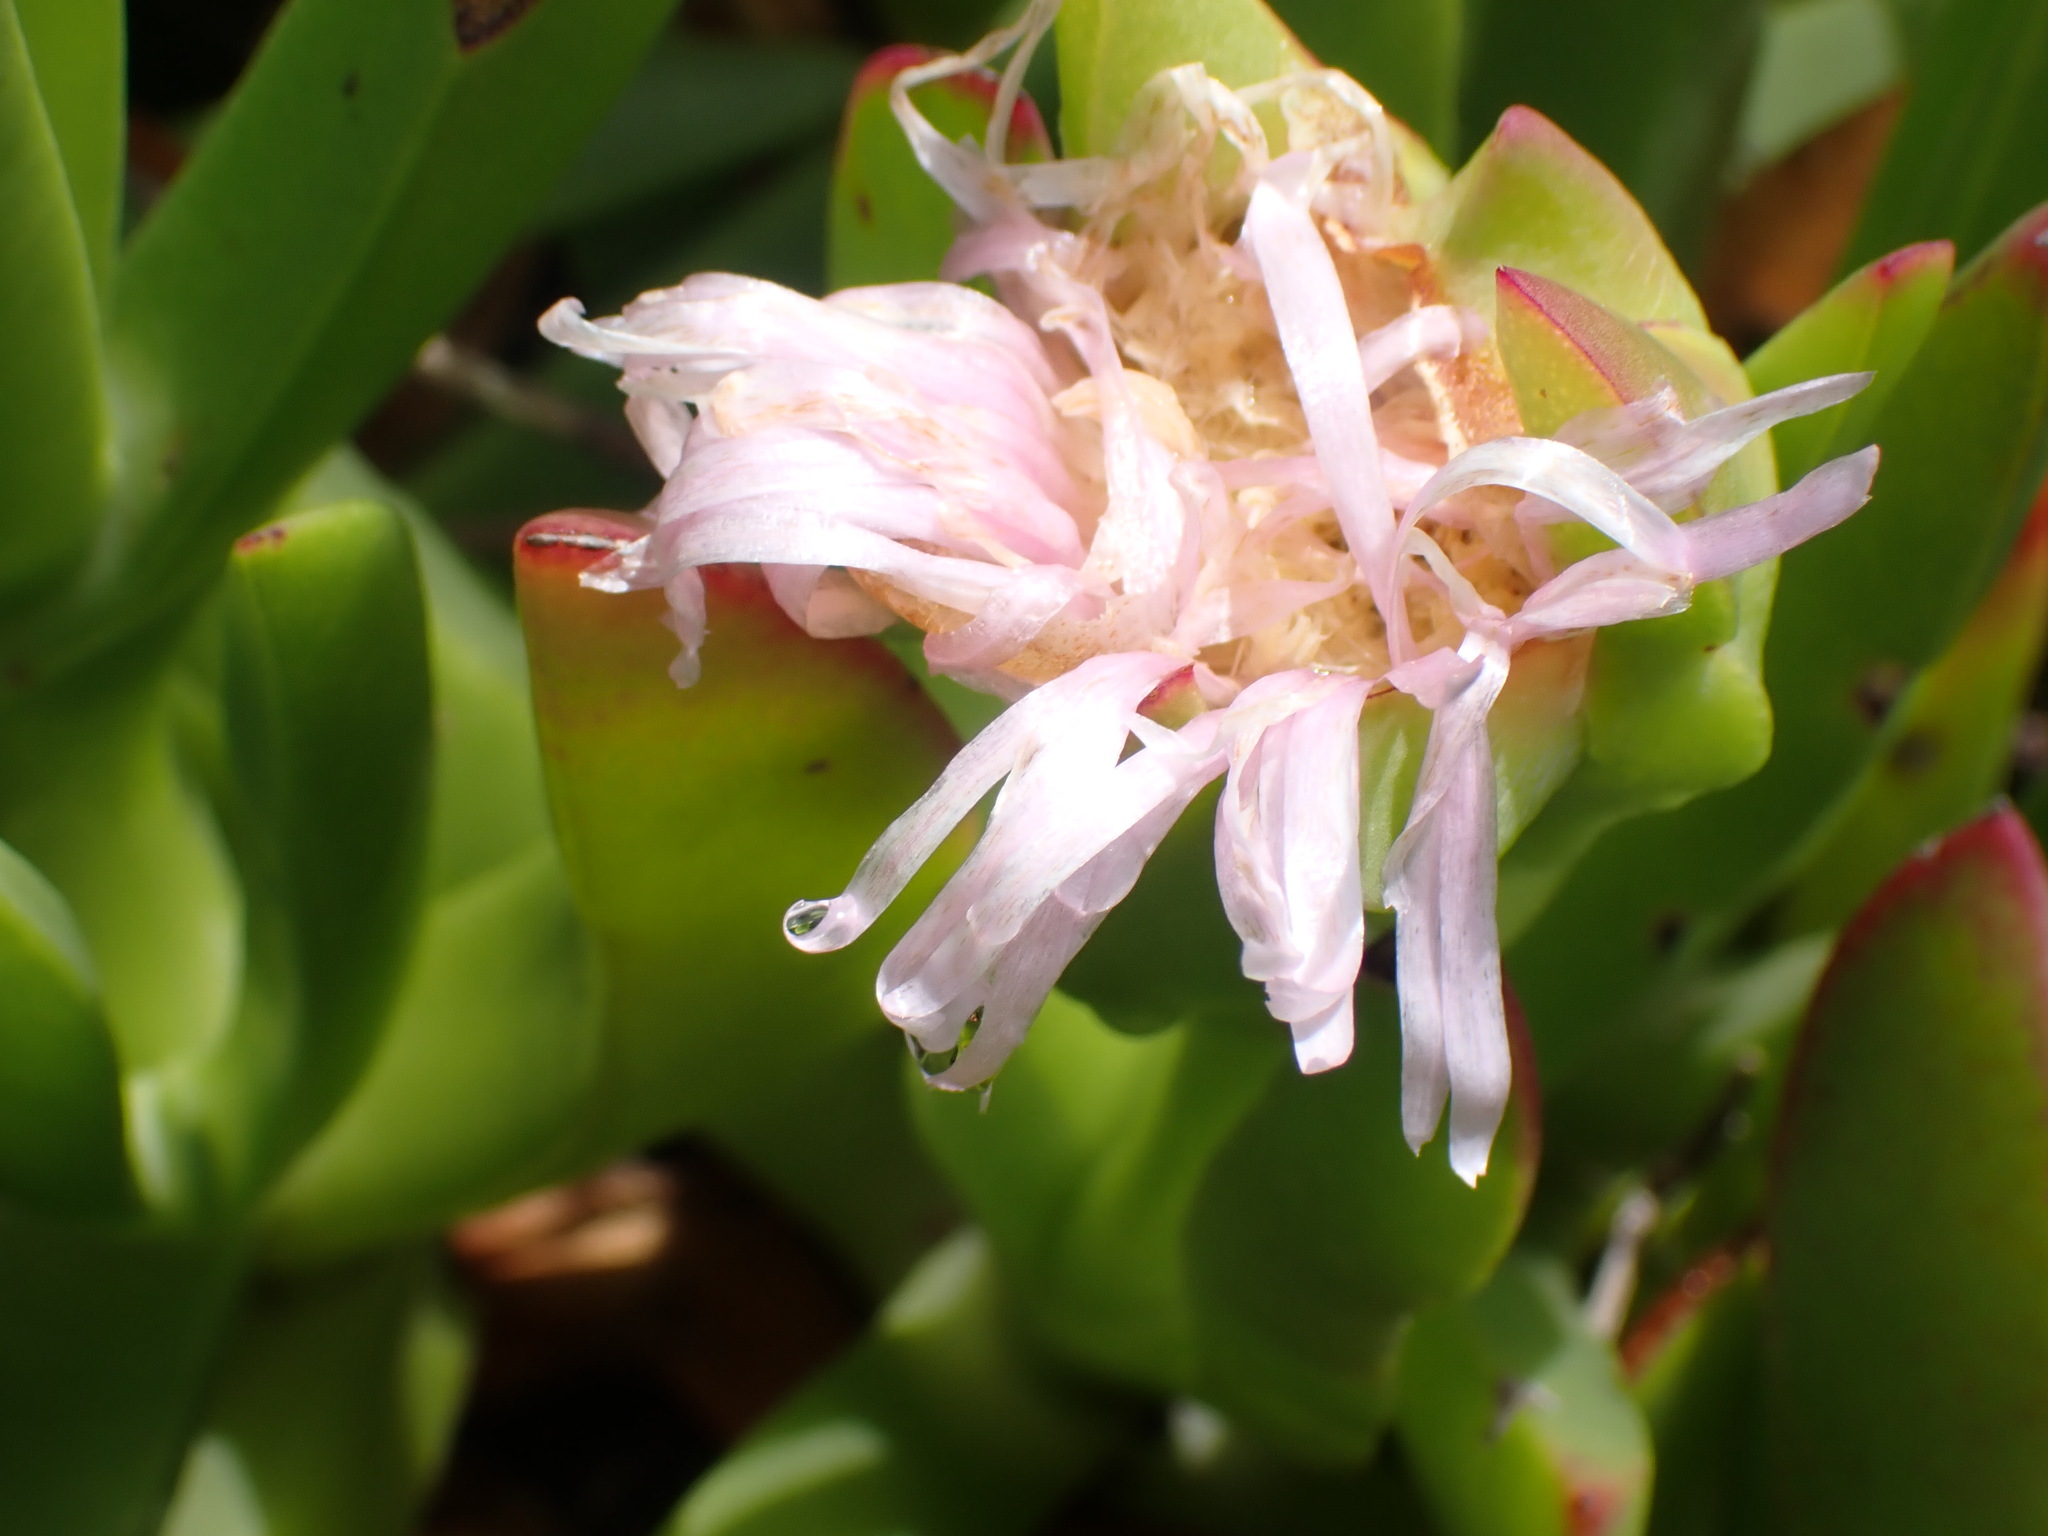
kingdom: Plantae
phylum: Tracheophyta
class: Magnoliopsida
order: Caryophyllales
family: Aizoaceae
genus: Carpobrotus
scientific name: Carpobrotus edulis
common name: Hottentot-fig
